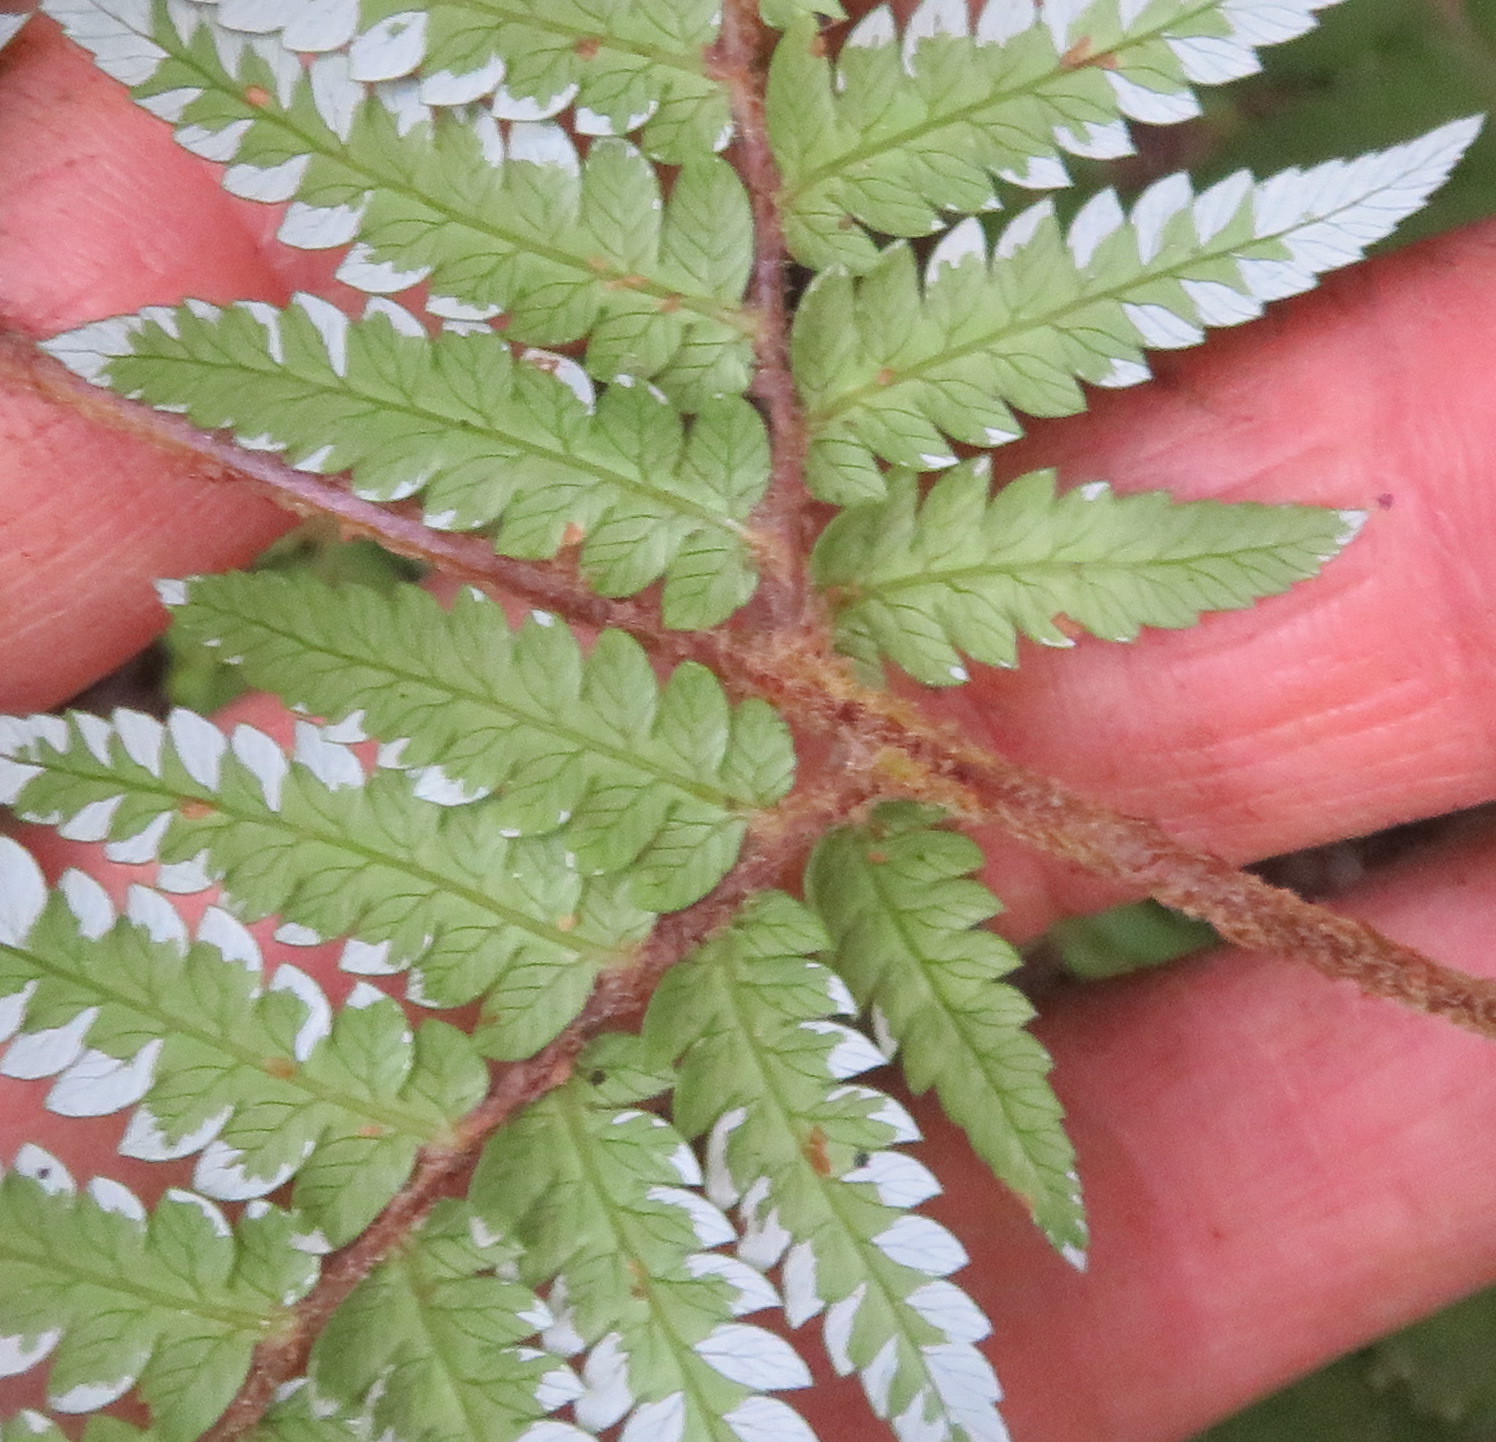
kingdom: Plantae
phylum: Tracheophyta
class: Polypodiopsida
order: Cyatheales
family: Cyatheaceae
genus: Alsophila
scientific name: Alsophila dealbata
